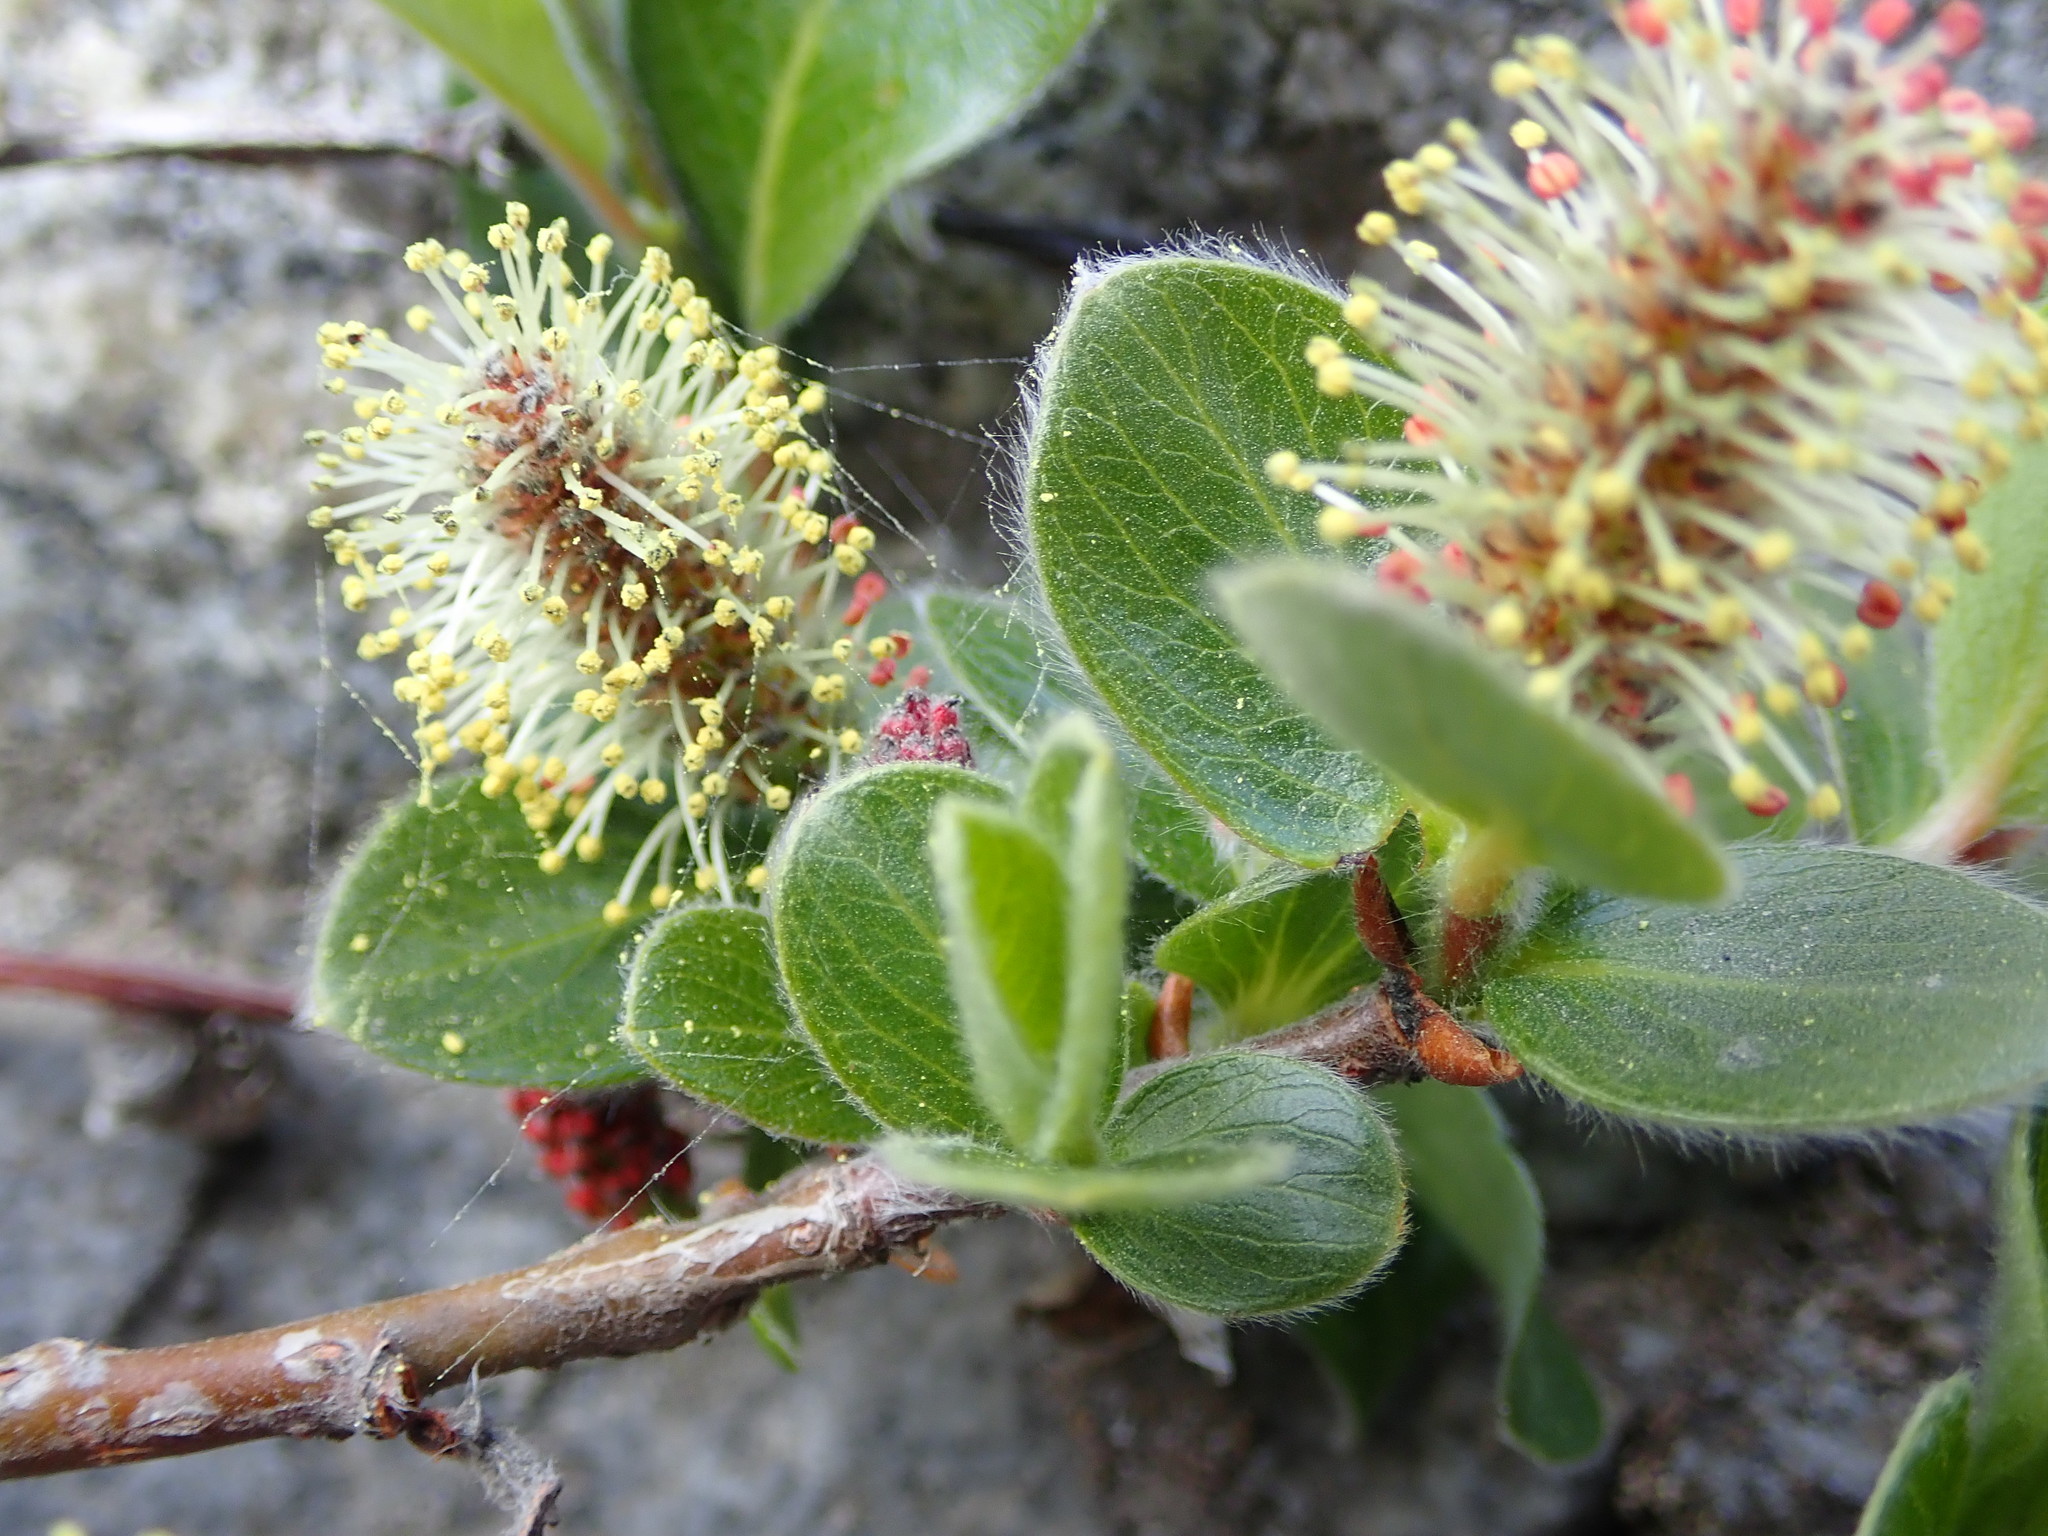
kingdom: Plantae
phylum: Tracheophyta
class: Magnoliopsida
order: Malpighiales
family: Salicaceae
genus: Salix
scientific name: Salix arctica
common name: Arctic willow
